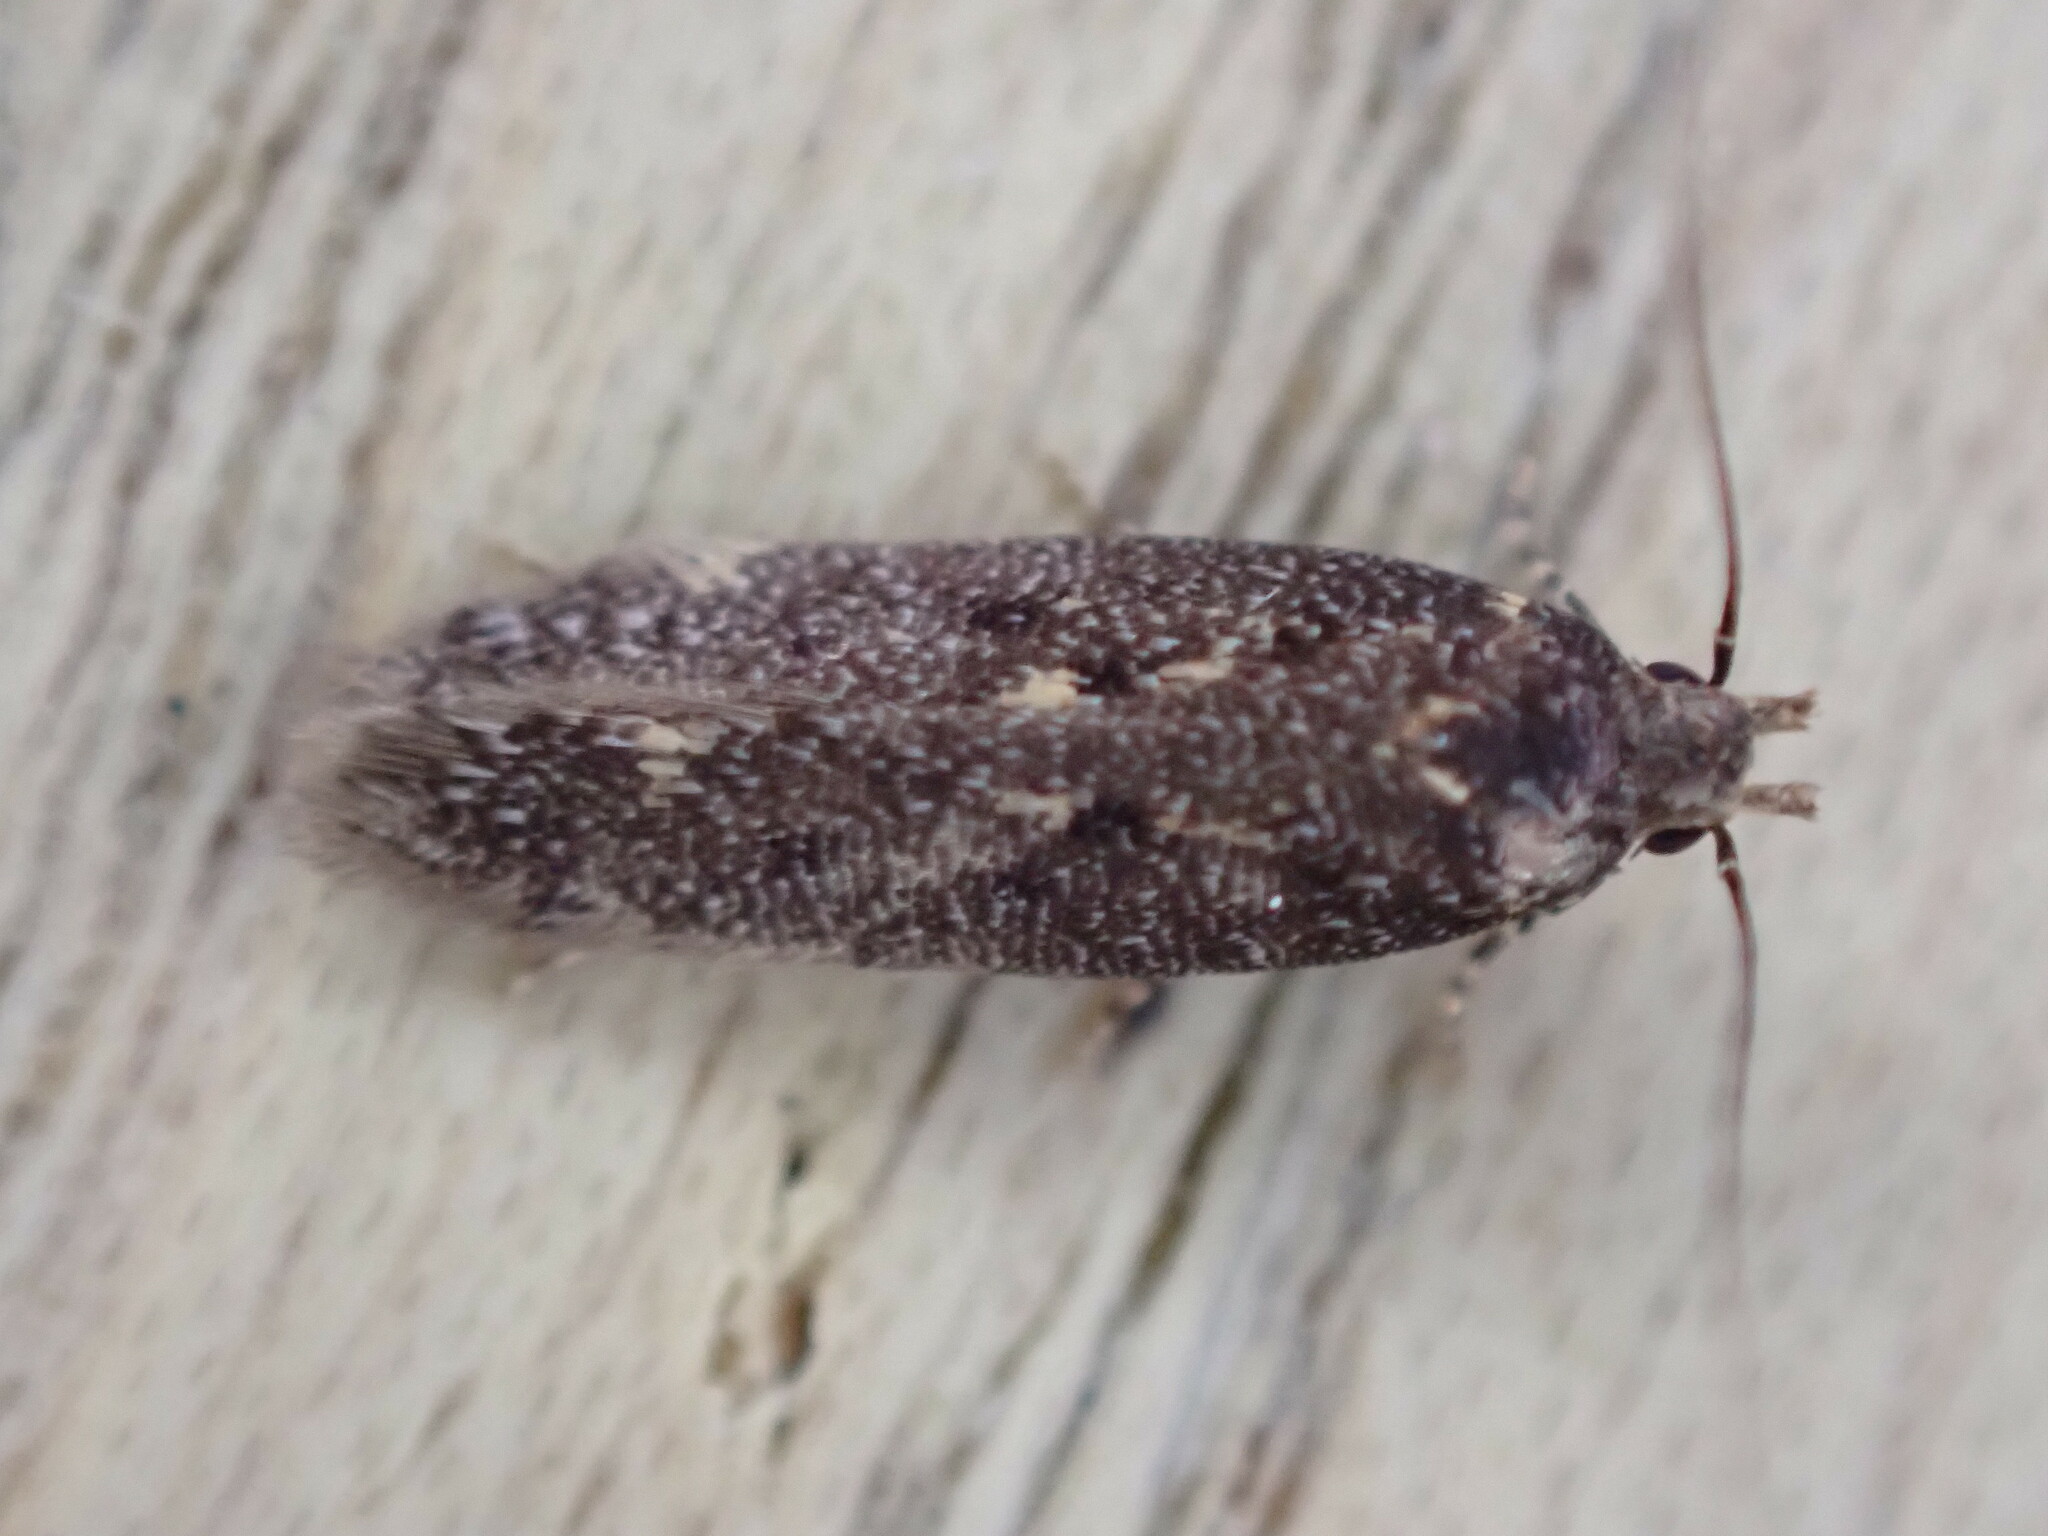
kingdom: Animalia
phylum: Arthropoda
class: Insecta
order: Lepidoptera
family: Gelechiidae
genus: Bryotropha
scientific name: Bryotropha affinis
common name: Dark groundling
